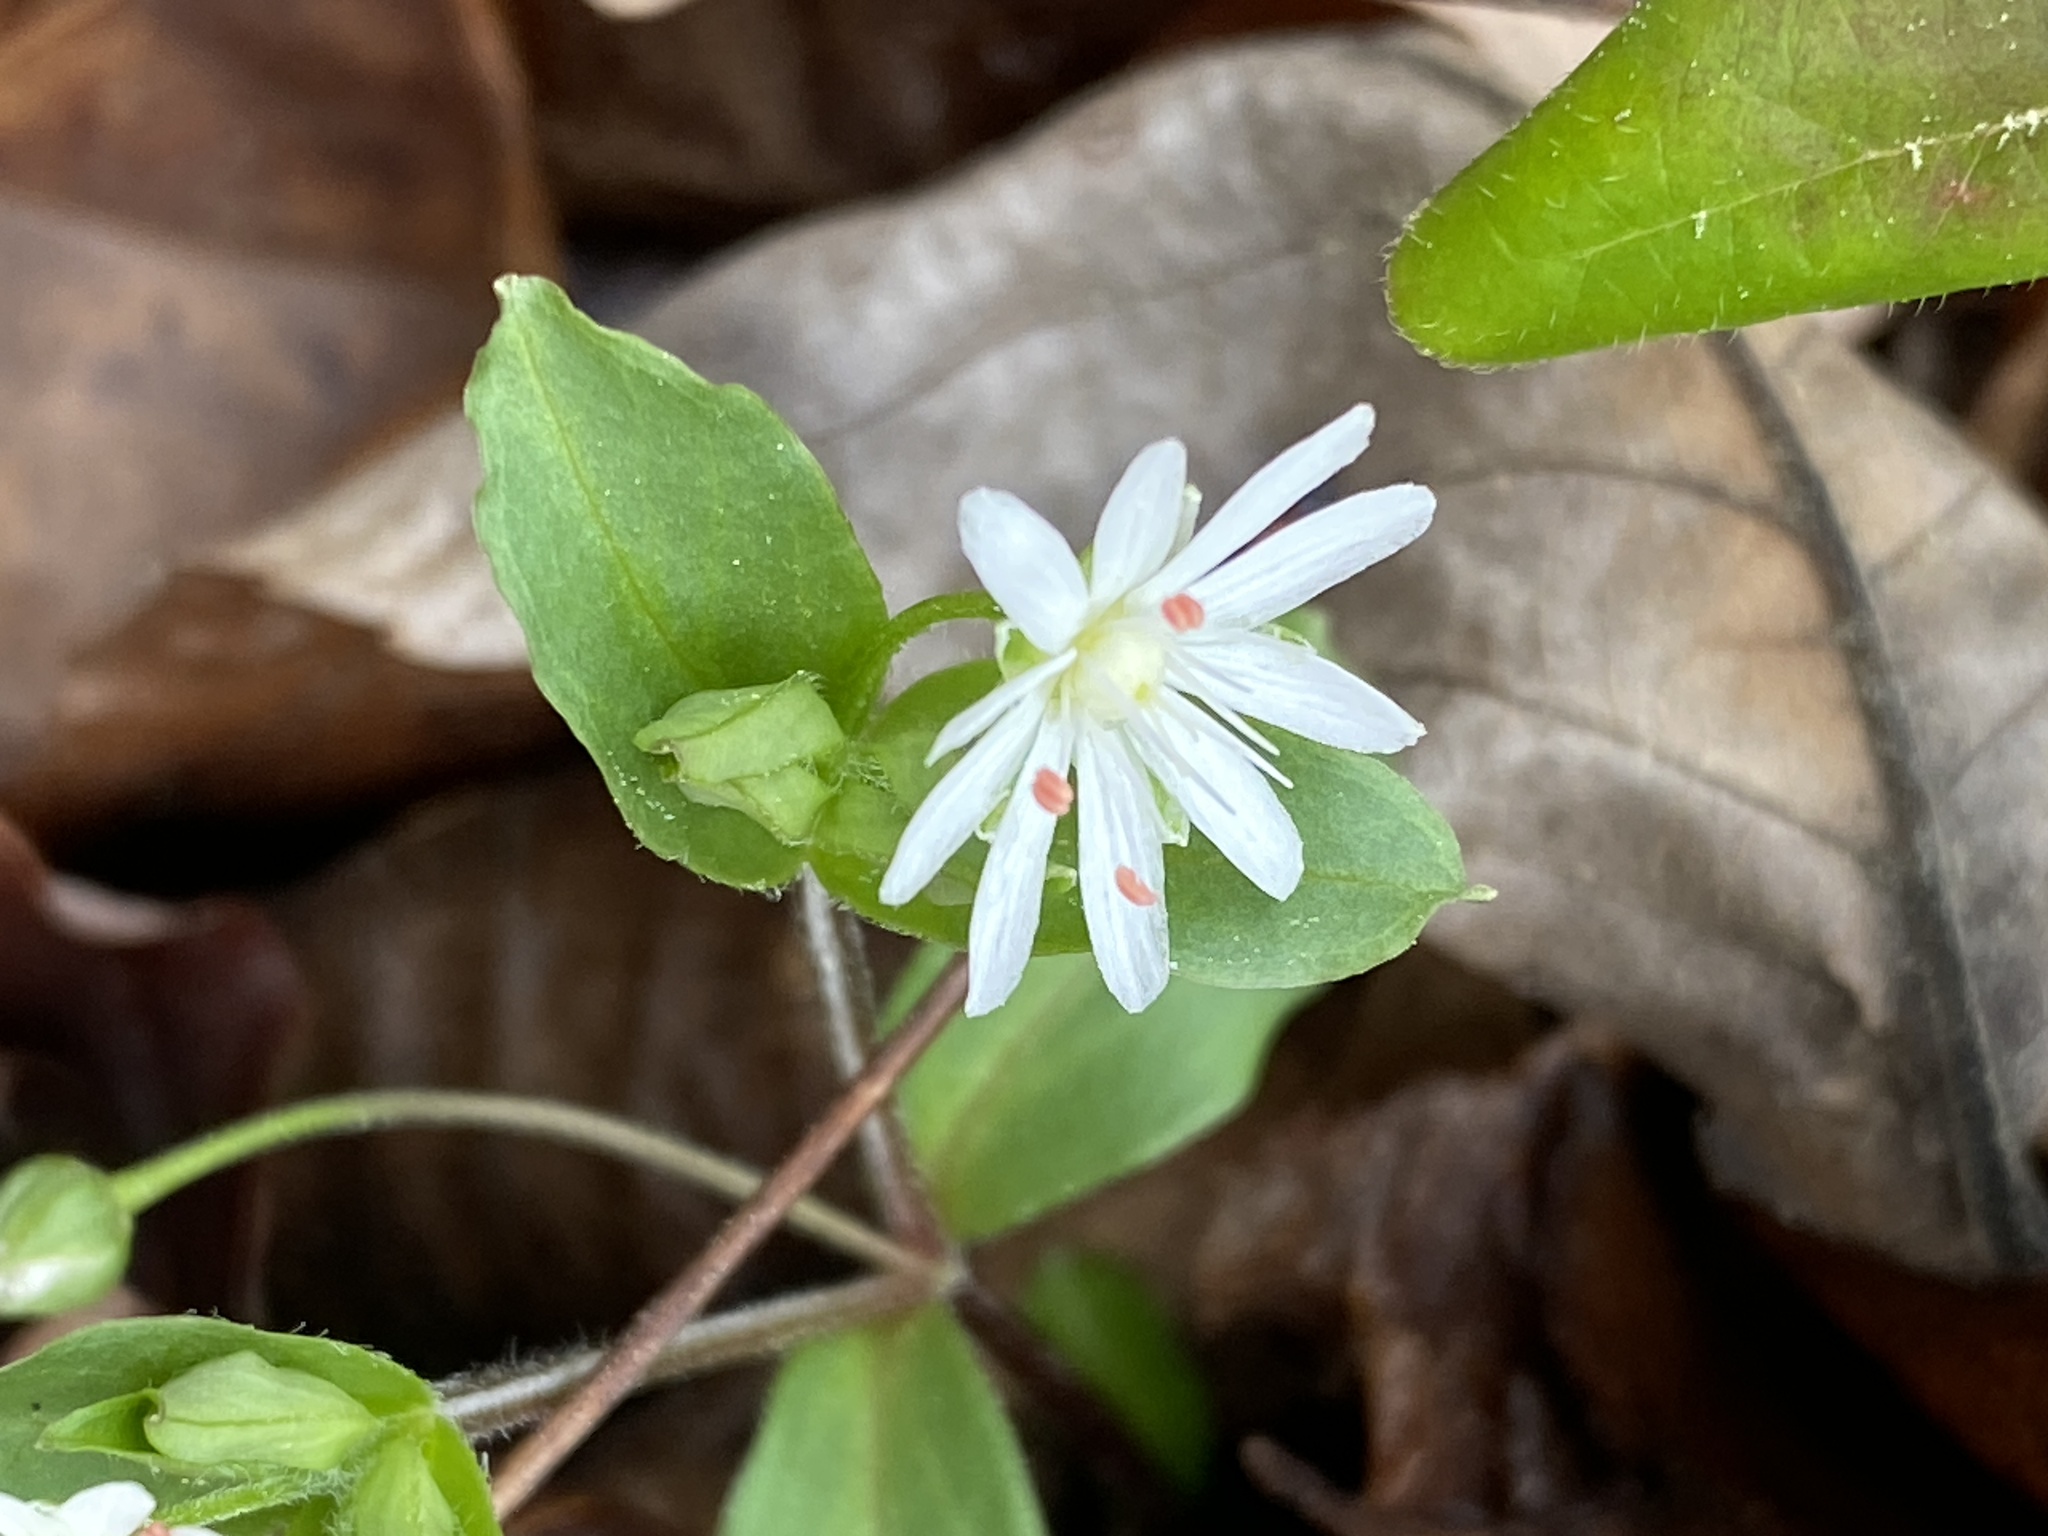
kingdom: Plantae
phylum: Tracheophyta
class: Magnoliopsida
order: Caryophyllales
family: Caryophyllaceae
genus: Stellaria
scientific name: Stellaria pubera
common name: Star chickweed
